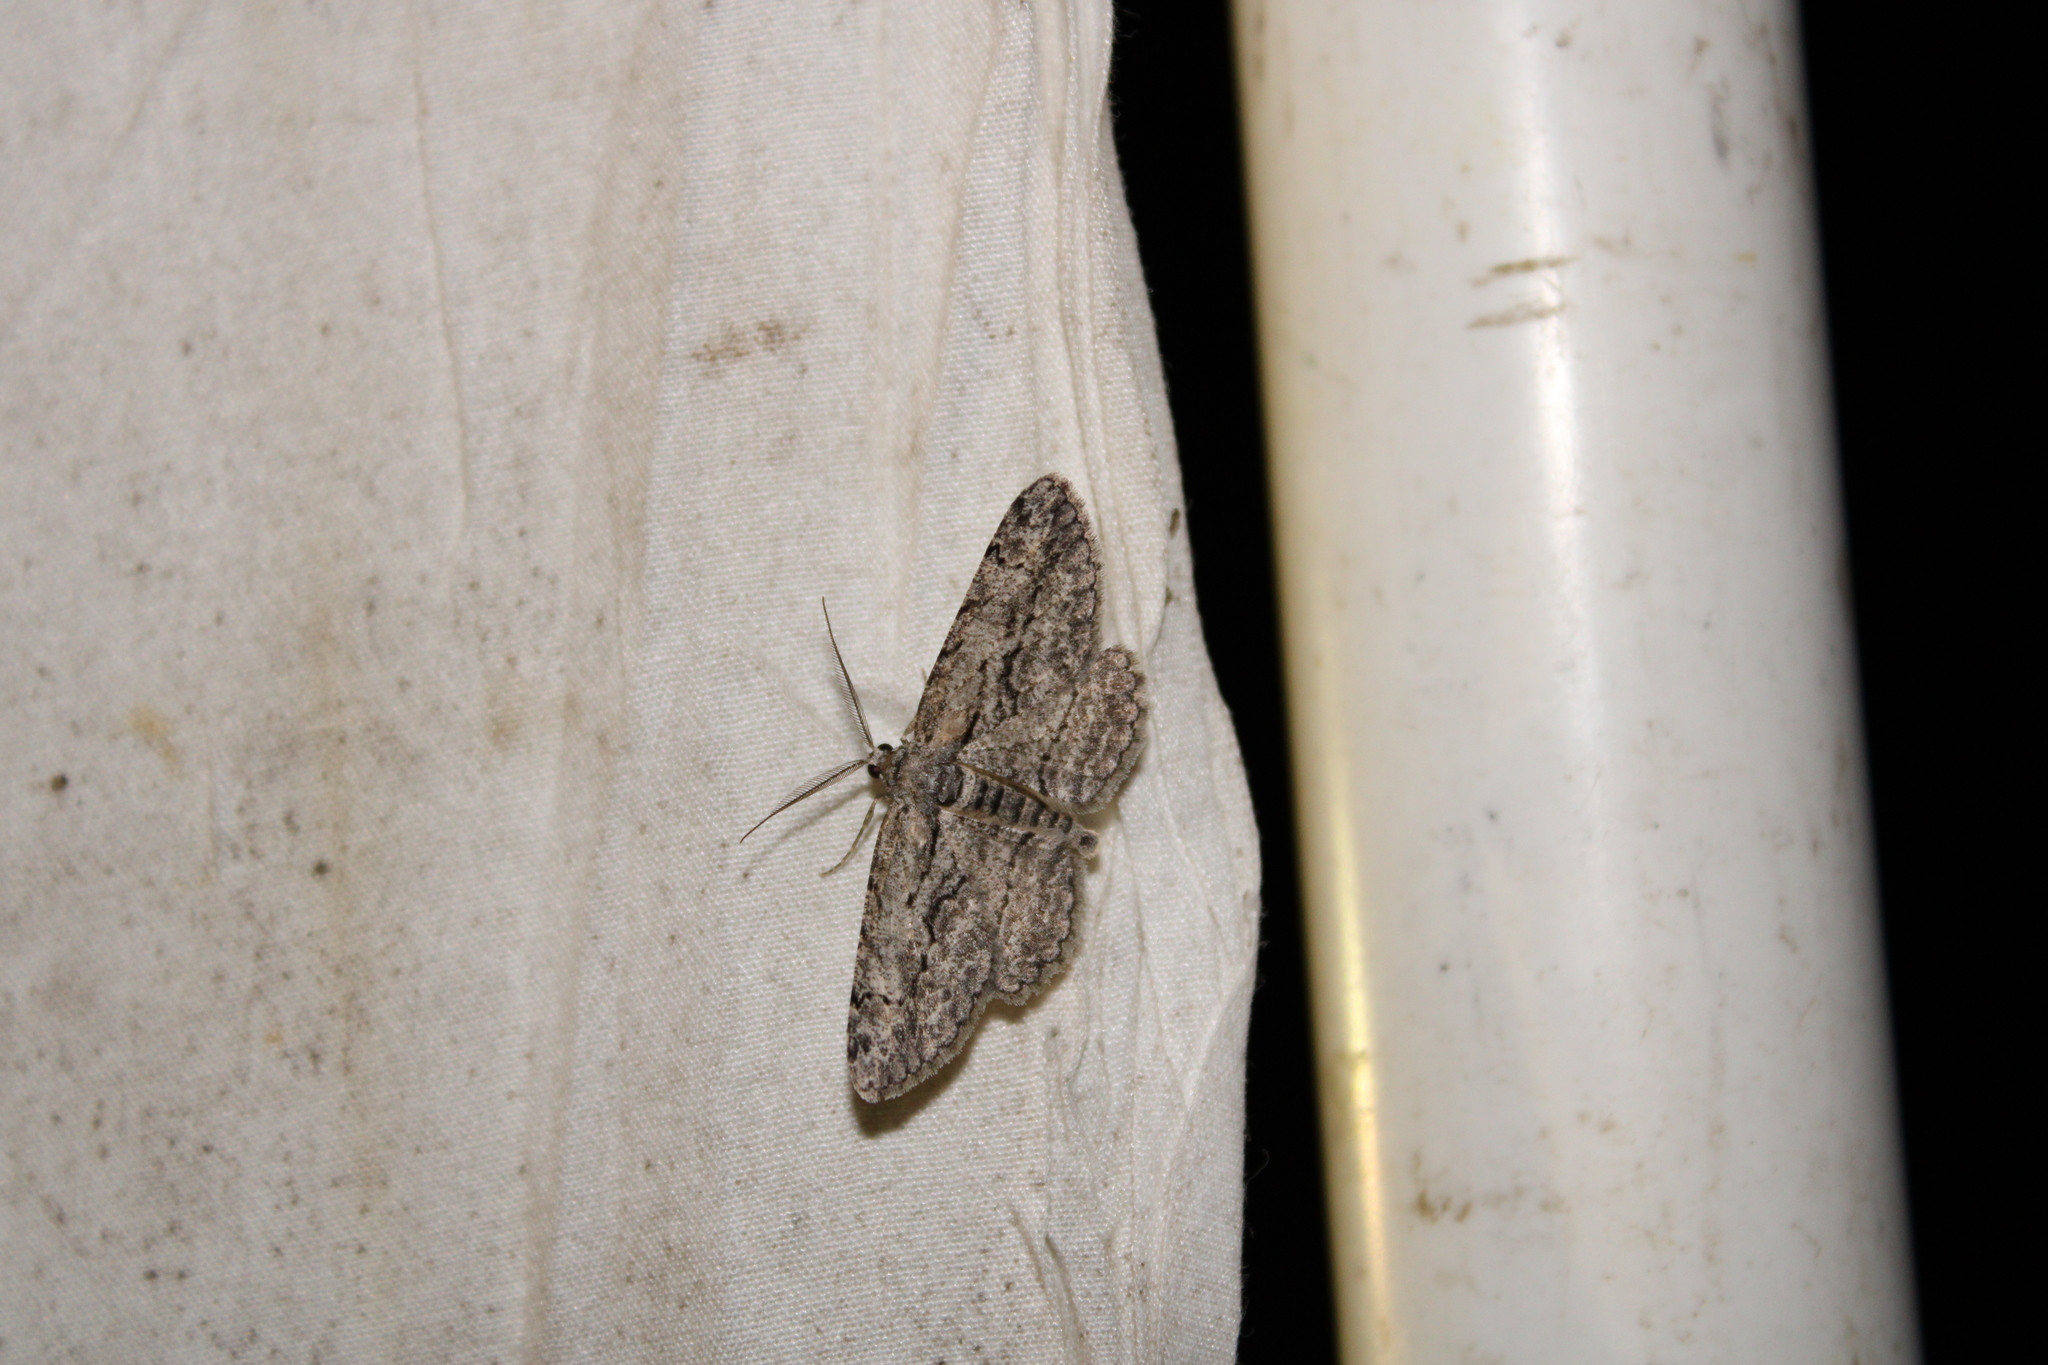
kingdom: Animalia
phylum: Arthropoda
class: Insecta
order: Lepidoptera
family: Geometridae
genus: Anavitrinella
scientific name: Anavitrinella pampinaria
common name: Common gray
